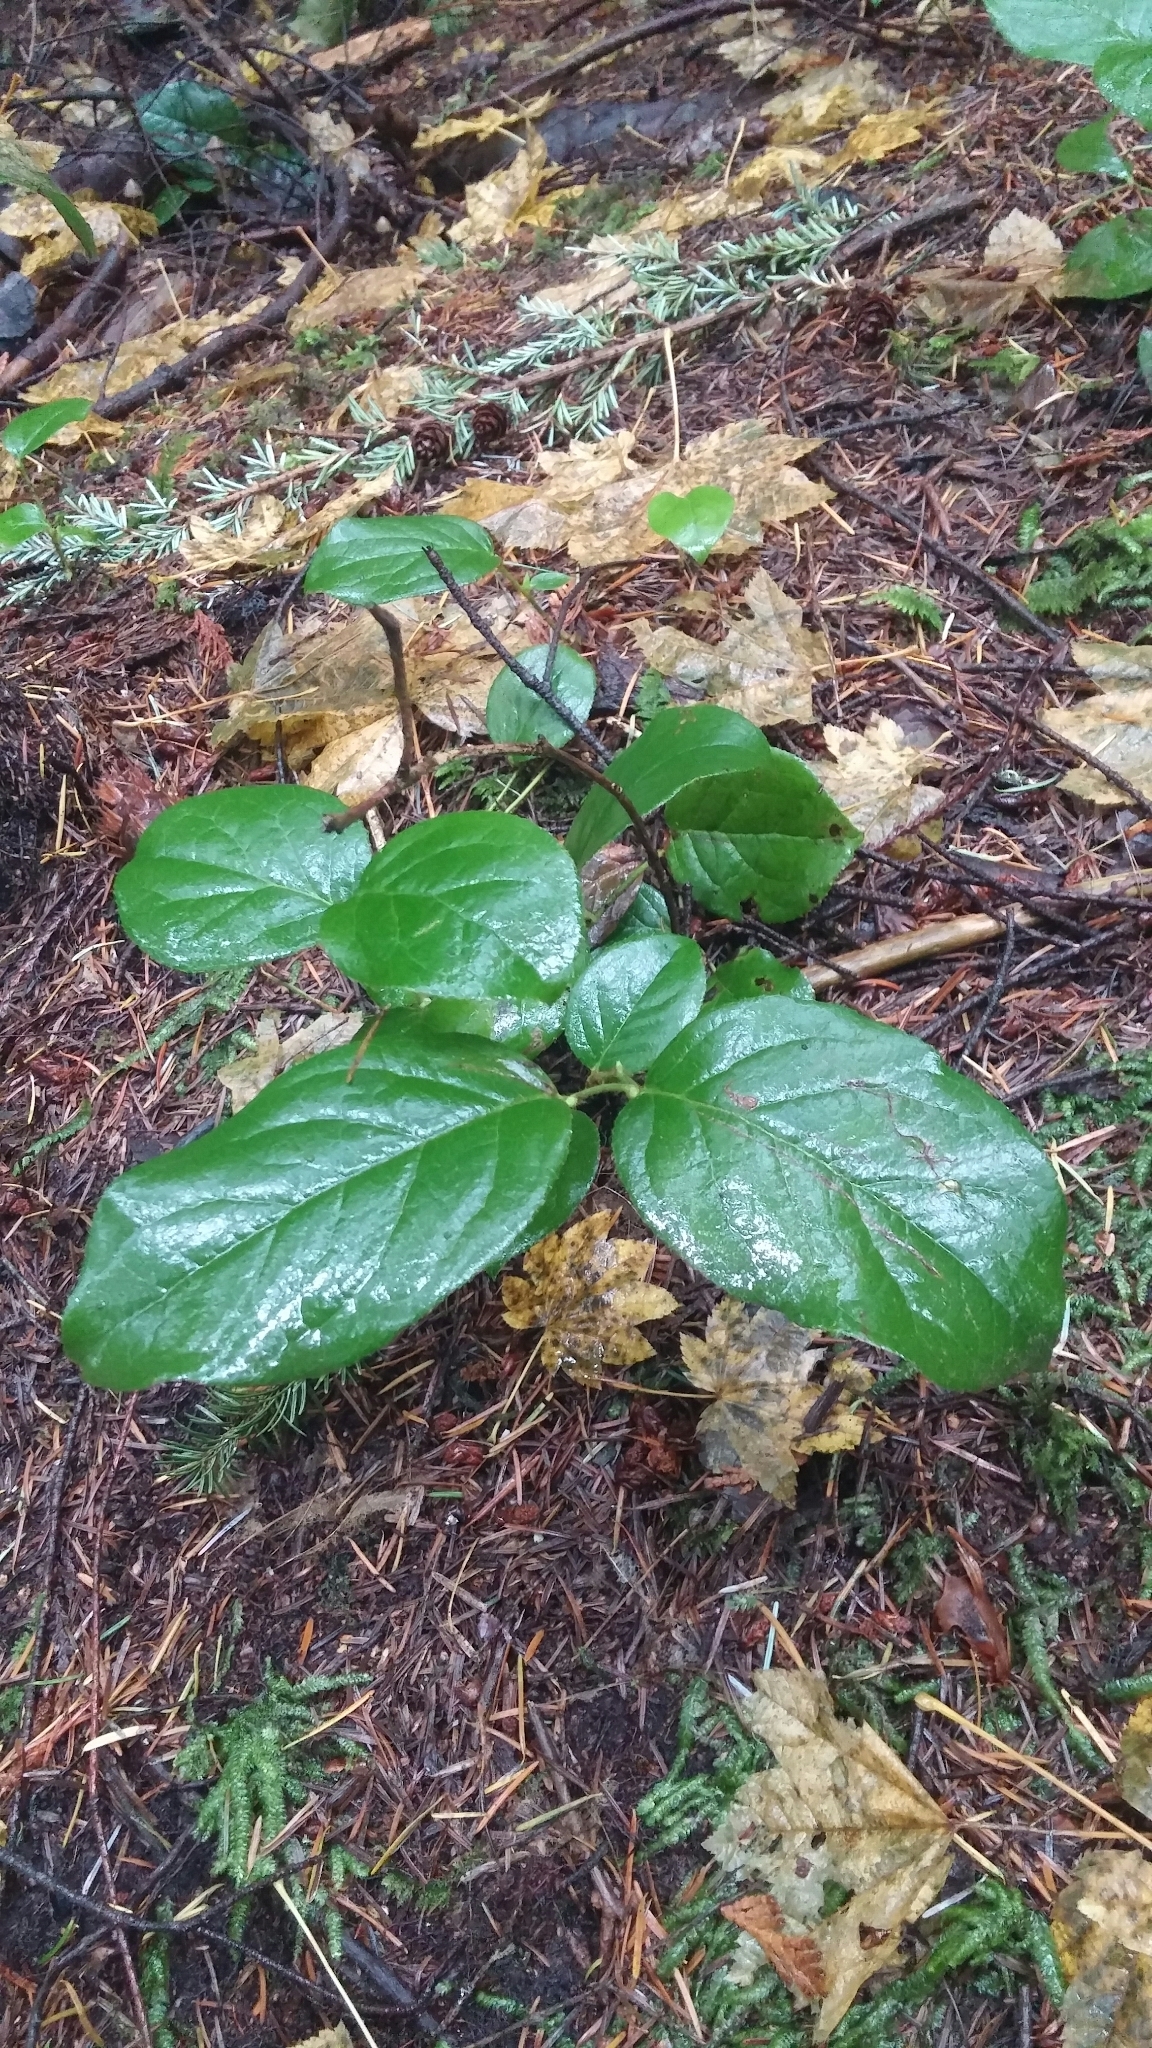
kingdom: Plantae
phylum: Tracheophyta
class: Magnoliopsida
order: Ericales
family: Ericaceae
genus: Gaultheria
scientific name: Gaultheria shallon
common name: Shallon
